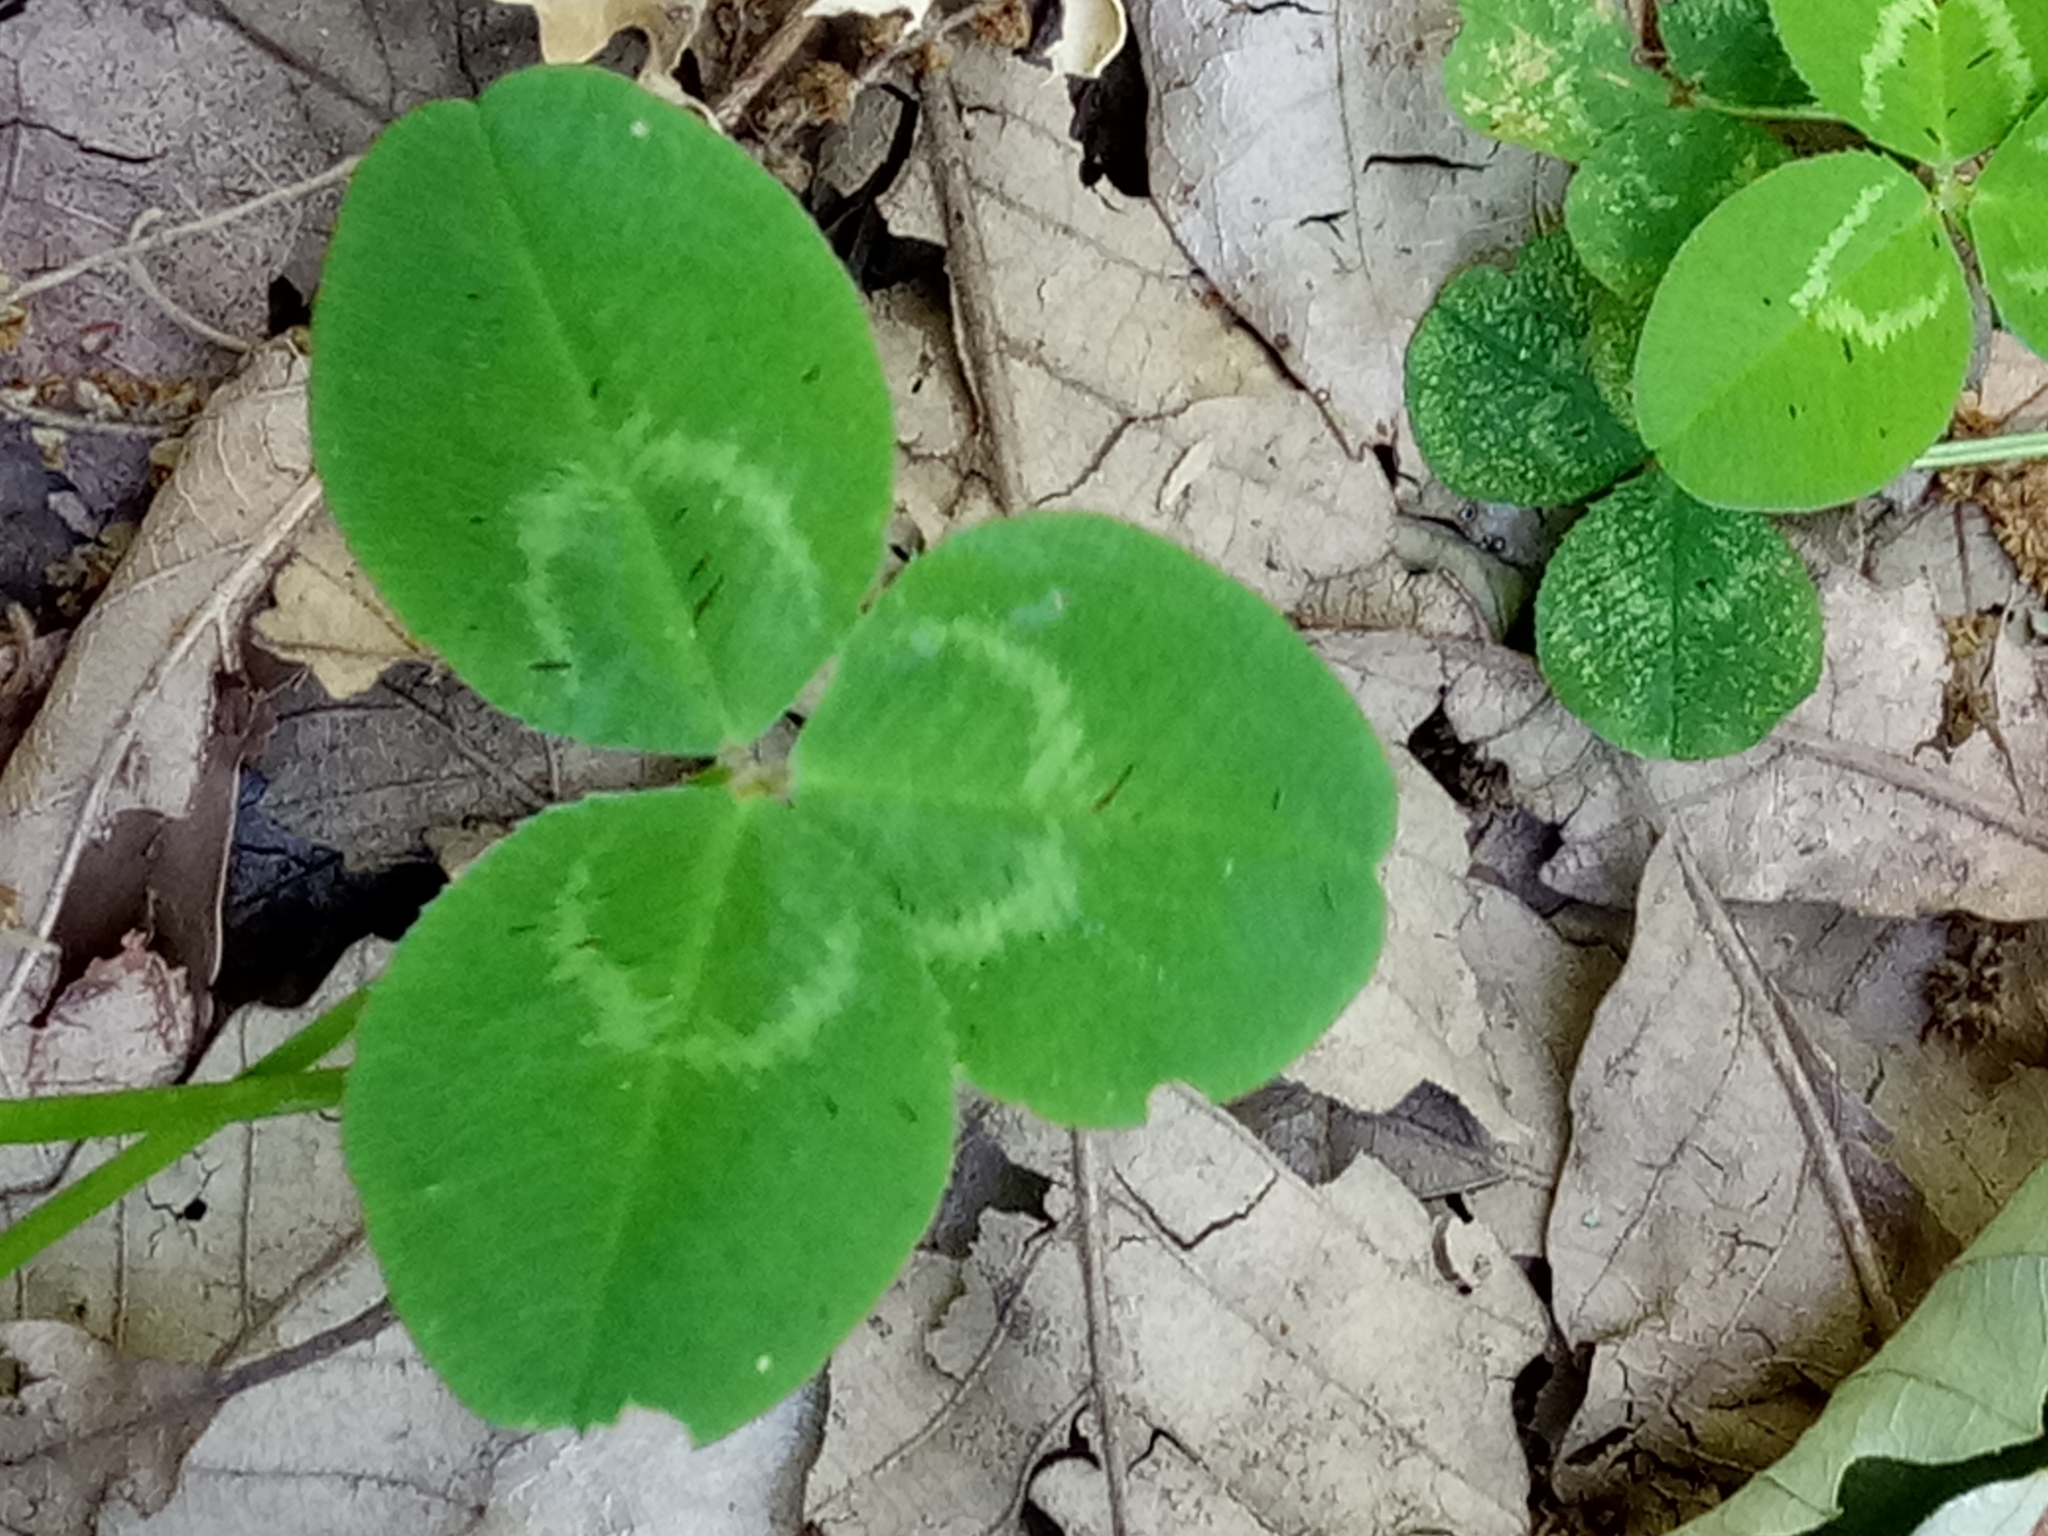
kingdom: Plantae
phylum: Tracheophyta
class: Magnoliopsida
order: Fabales
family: Fabaceae
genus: Trifolium
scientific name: Trifolium repens
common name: White clover
